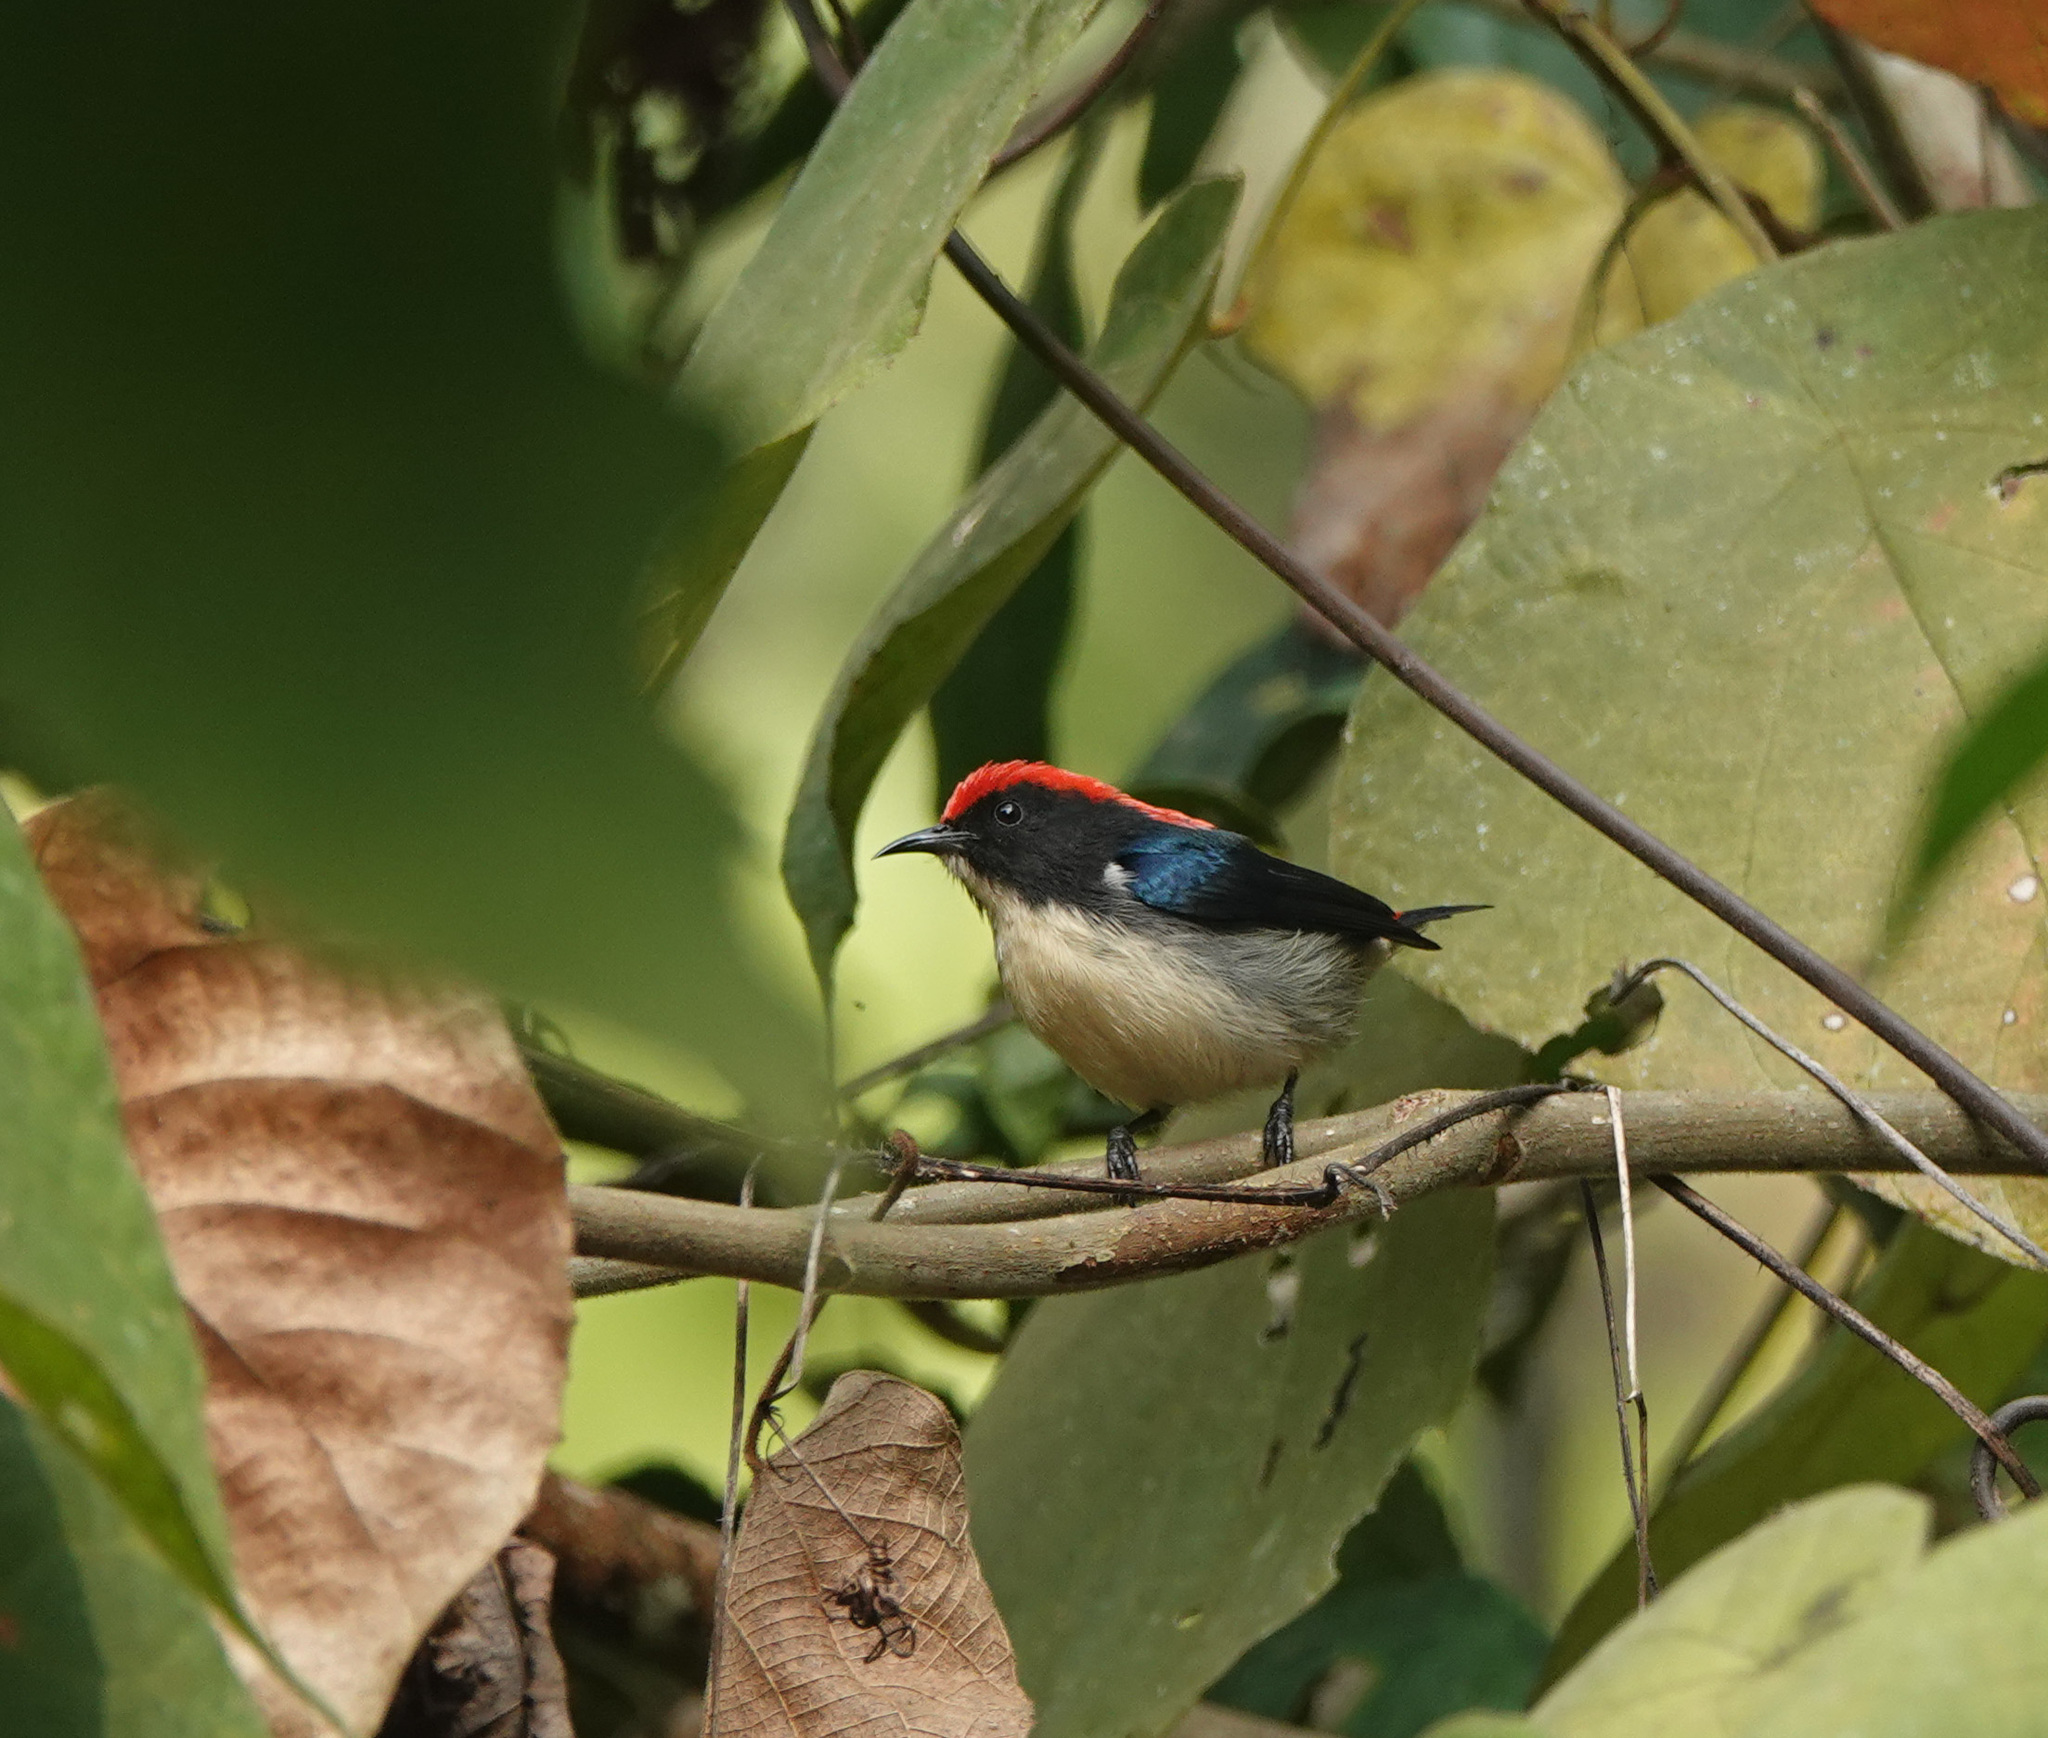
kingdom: Animalia
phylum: Chordata
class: Aves
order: Passeriformes
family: Dicaeidae
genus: Dicaeum
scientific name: Dicaeum cruentatum
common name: Scarlet-backed flowerpecker
